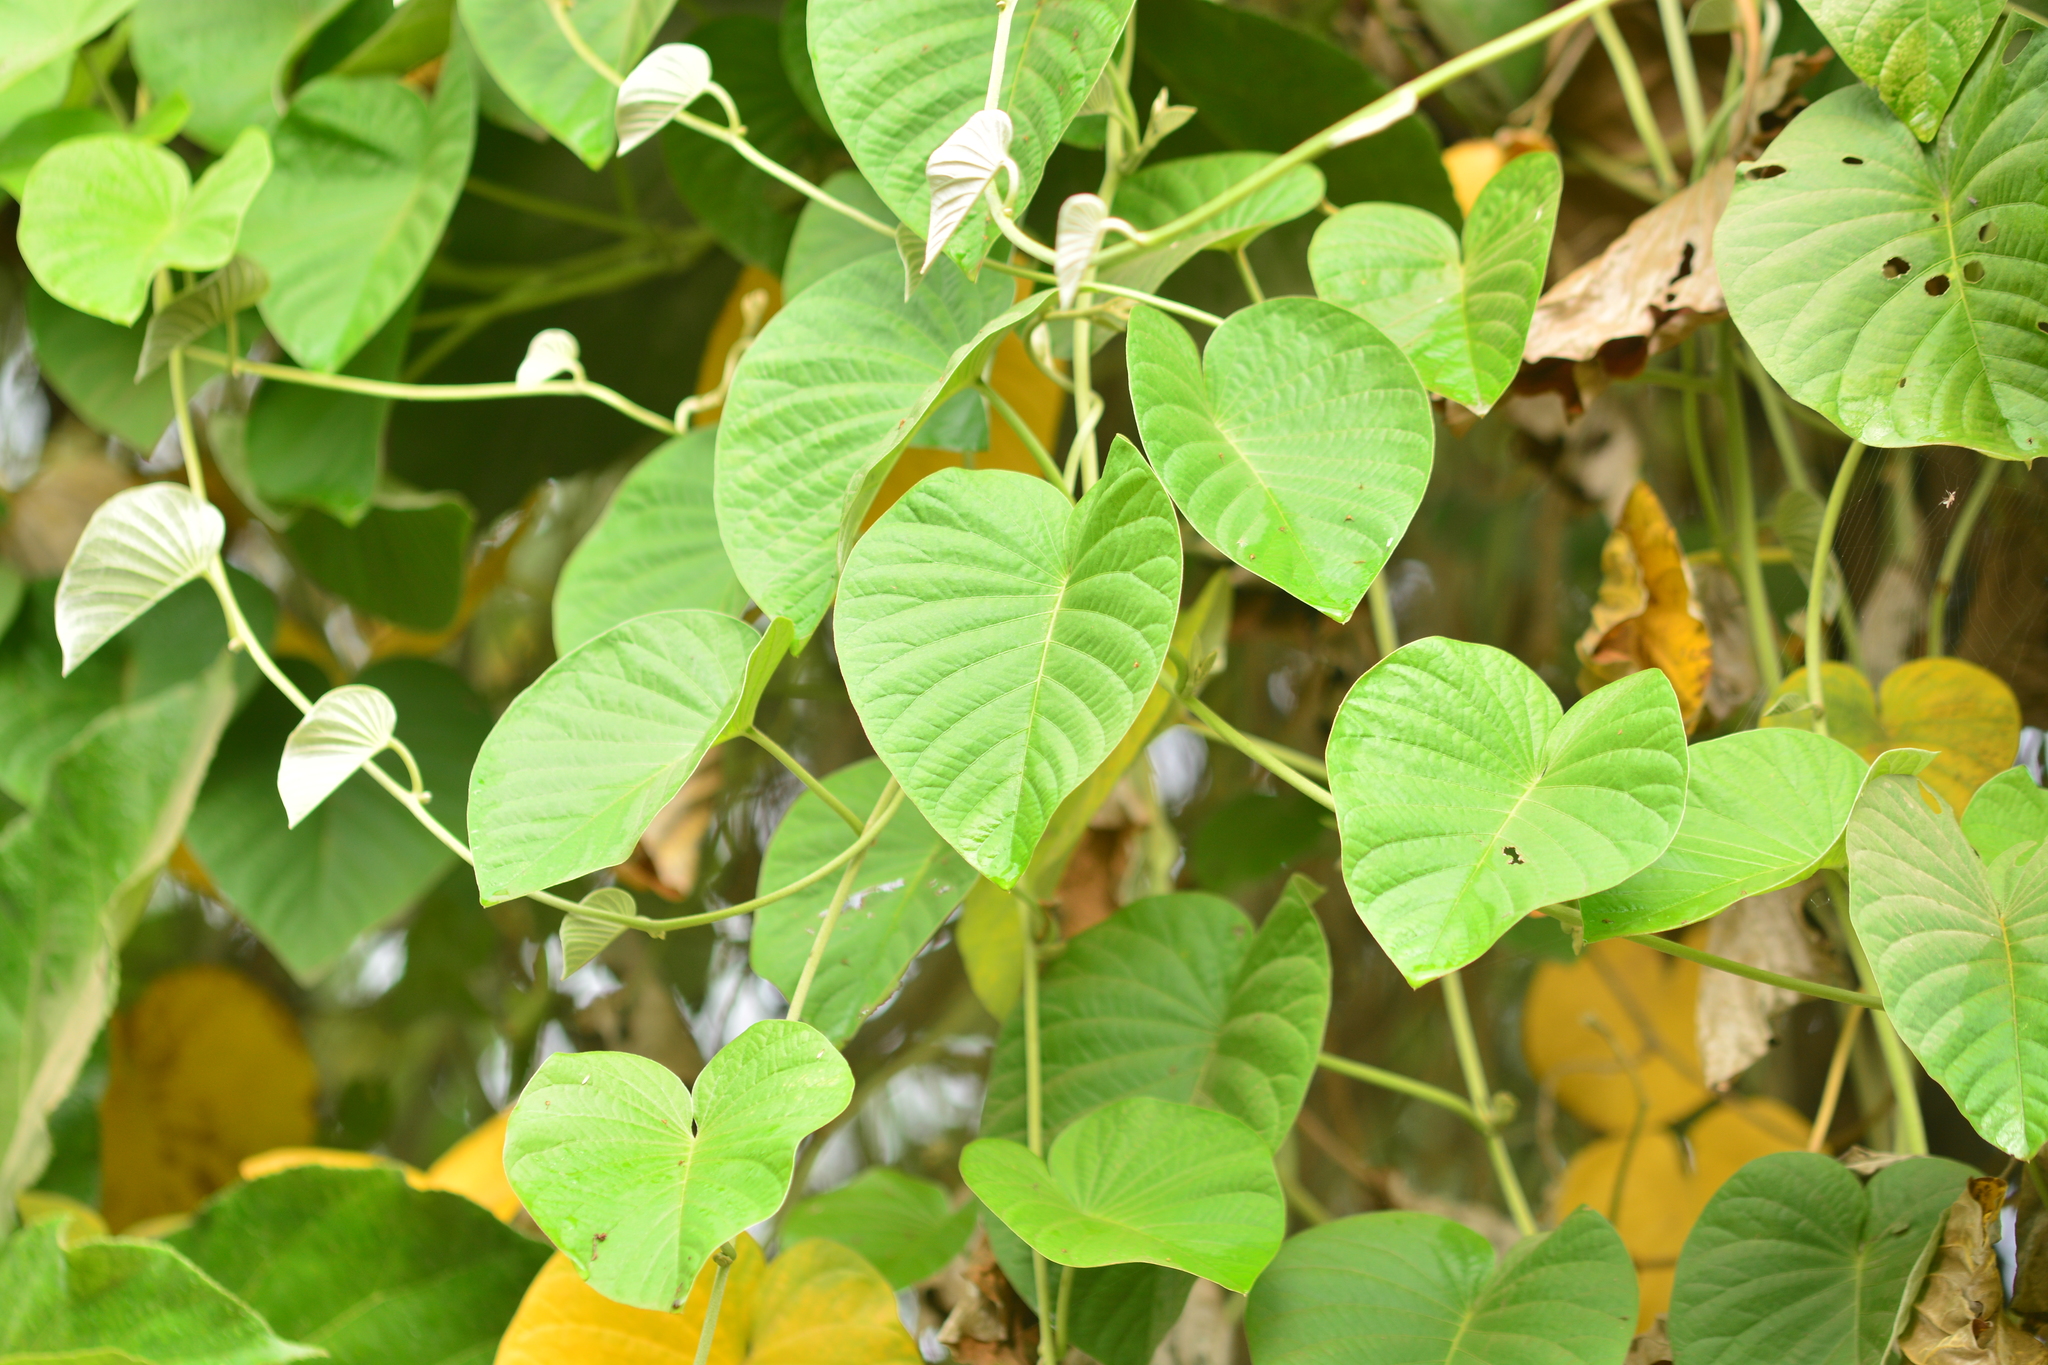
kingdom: Plantae
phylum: Tracheophyta
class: Magnoliopsida
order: Solanales
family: Convolvulaceae
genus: Argyreia
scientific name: Argyreia nervosa
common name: Elephant creeper
